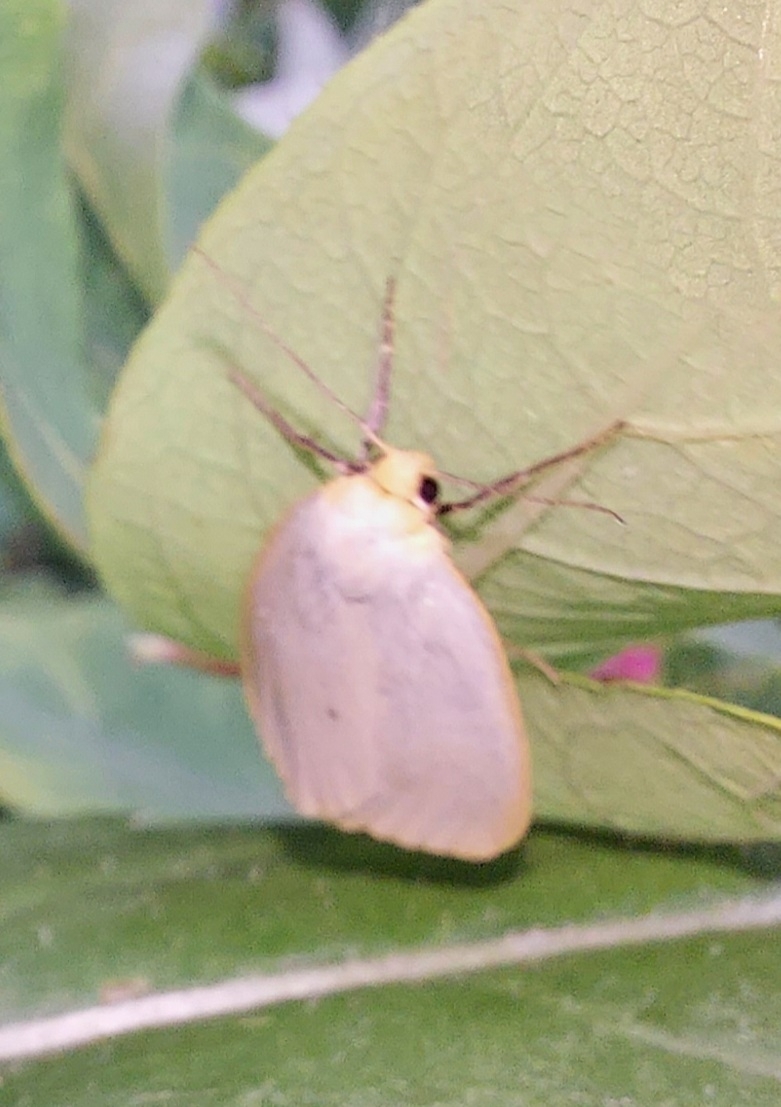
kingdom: Animalia
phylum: Arthropoda
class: Insecta
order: Lepidoptera
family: Erebidae
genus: Cybosia
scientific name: Cybosia mesomella
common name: Four-dotted footman
